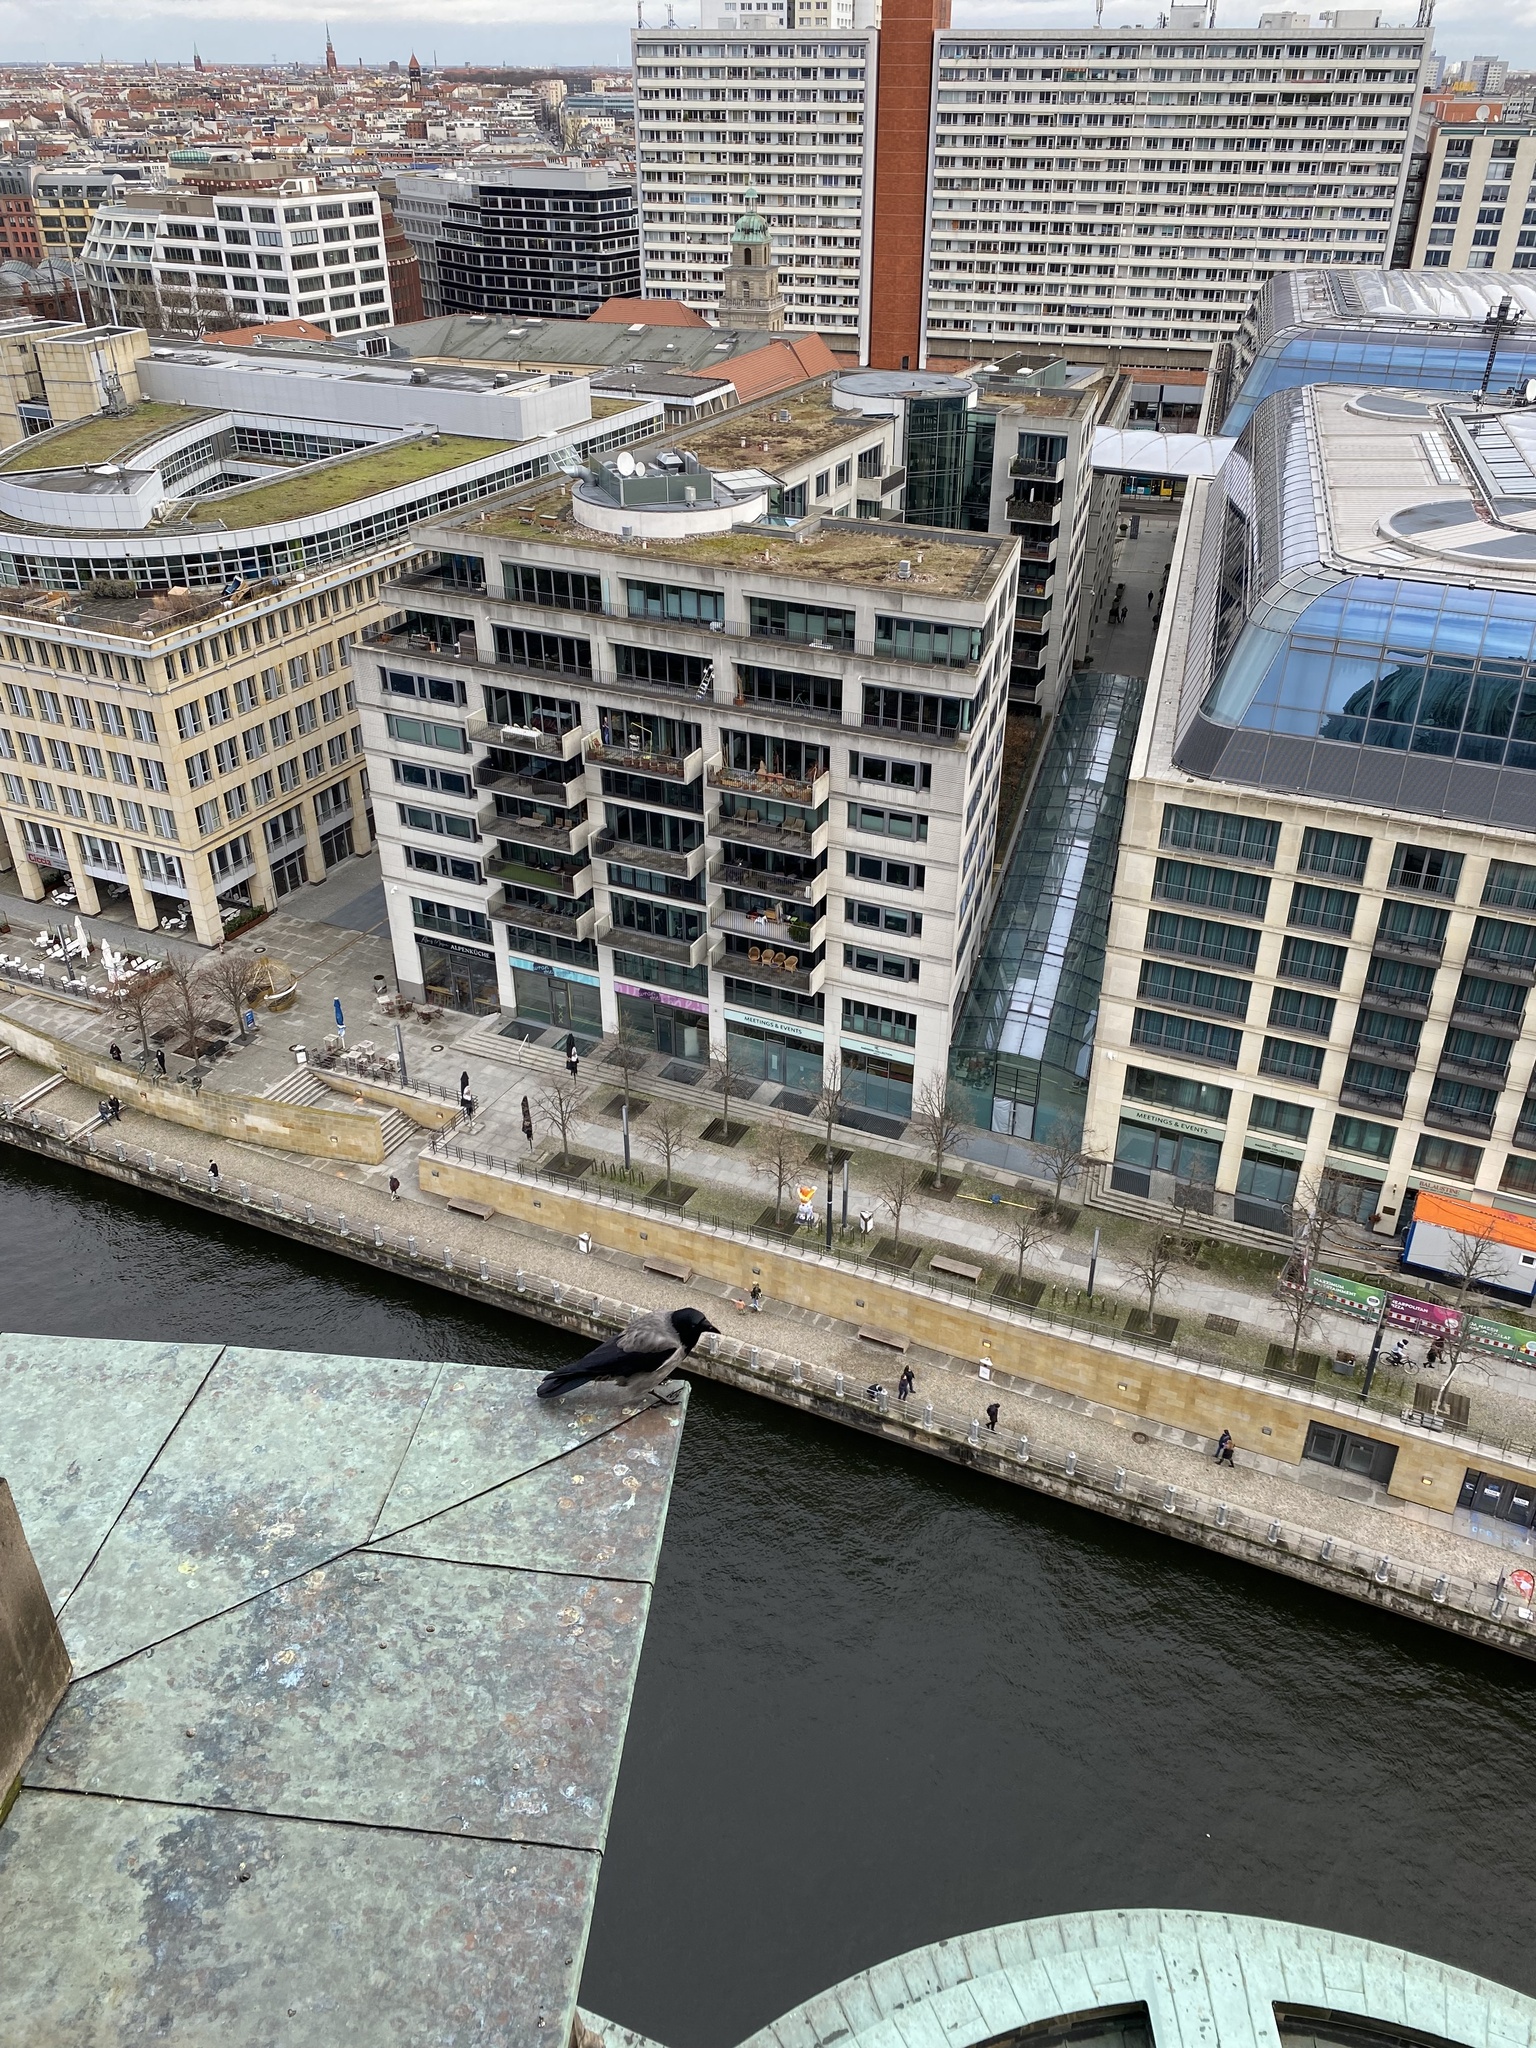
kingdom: Animalia
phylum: Chordata
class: Aves
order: Passeriformes
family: Corvidae
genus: Corvus
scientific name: Corvus cornix
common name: Hooded crow
